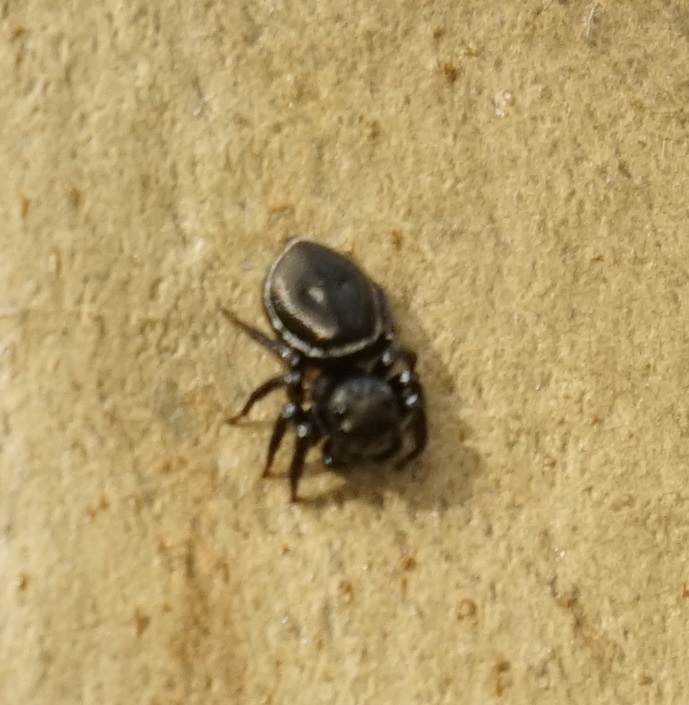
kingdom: Animalia
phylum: Arthropoda
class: Arachnida
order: Araneae
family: Salticidae
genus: Zenodorus
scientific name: Zenodorus orbiculatus
